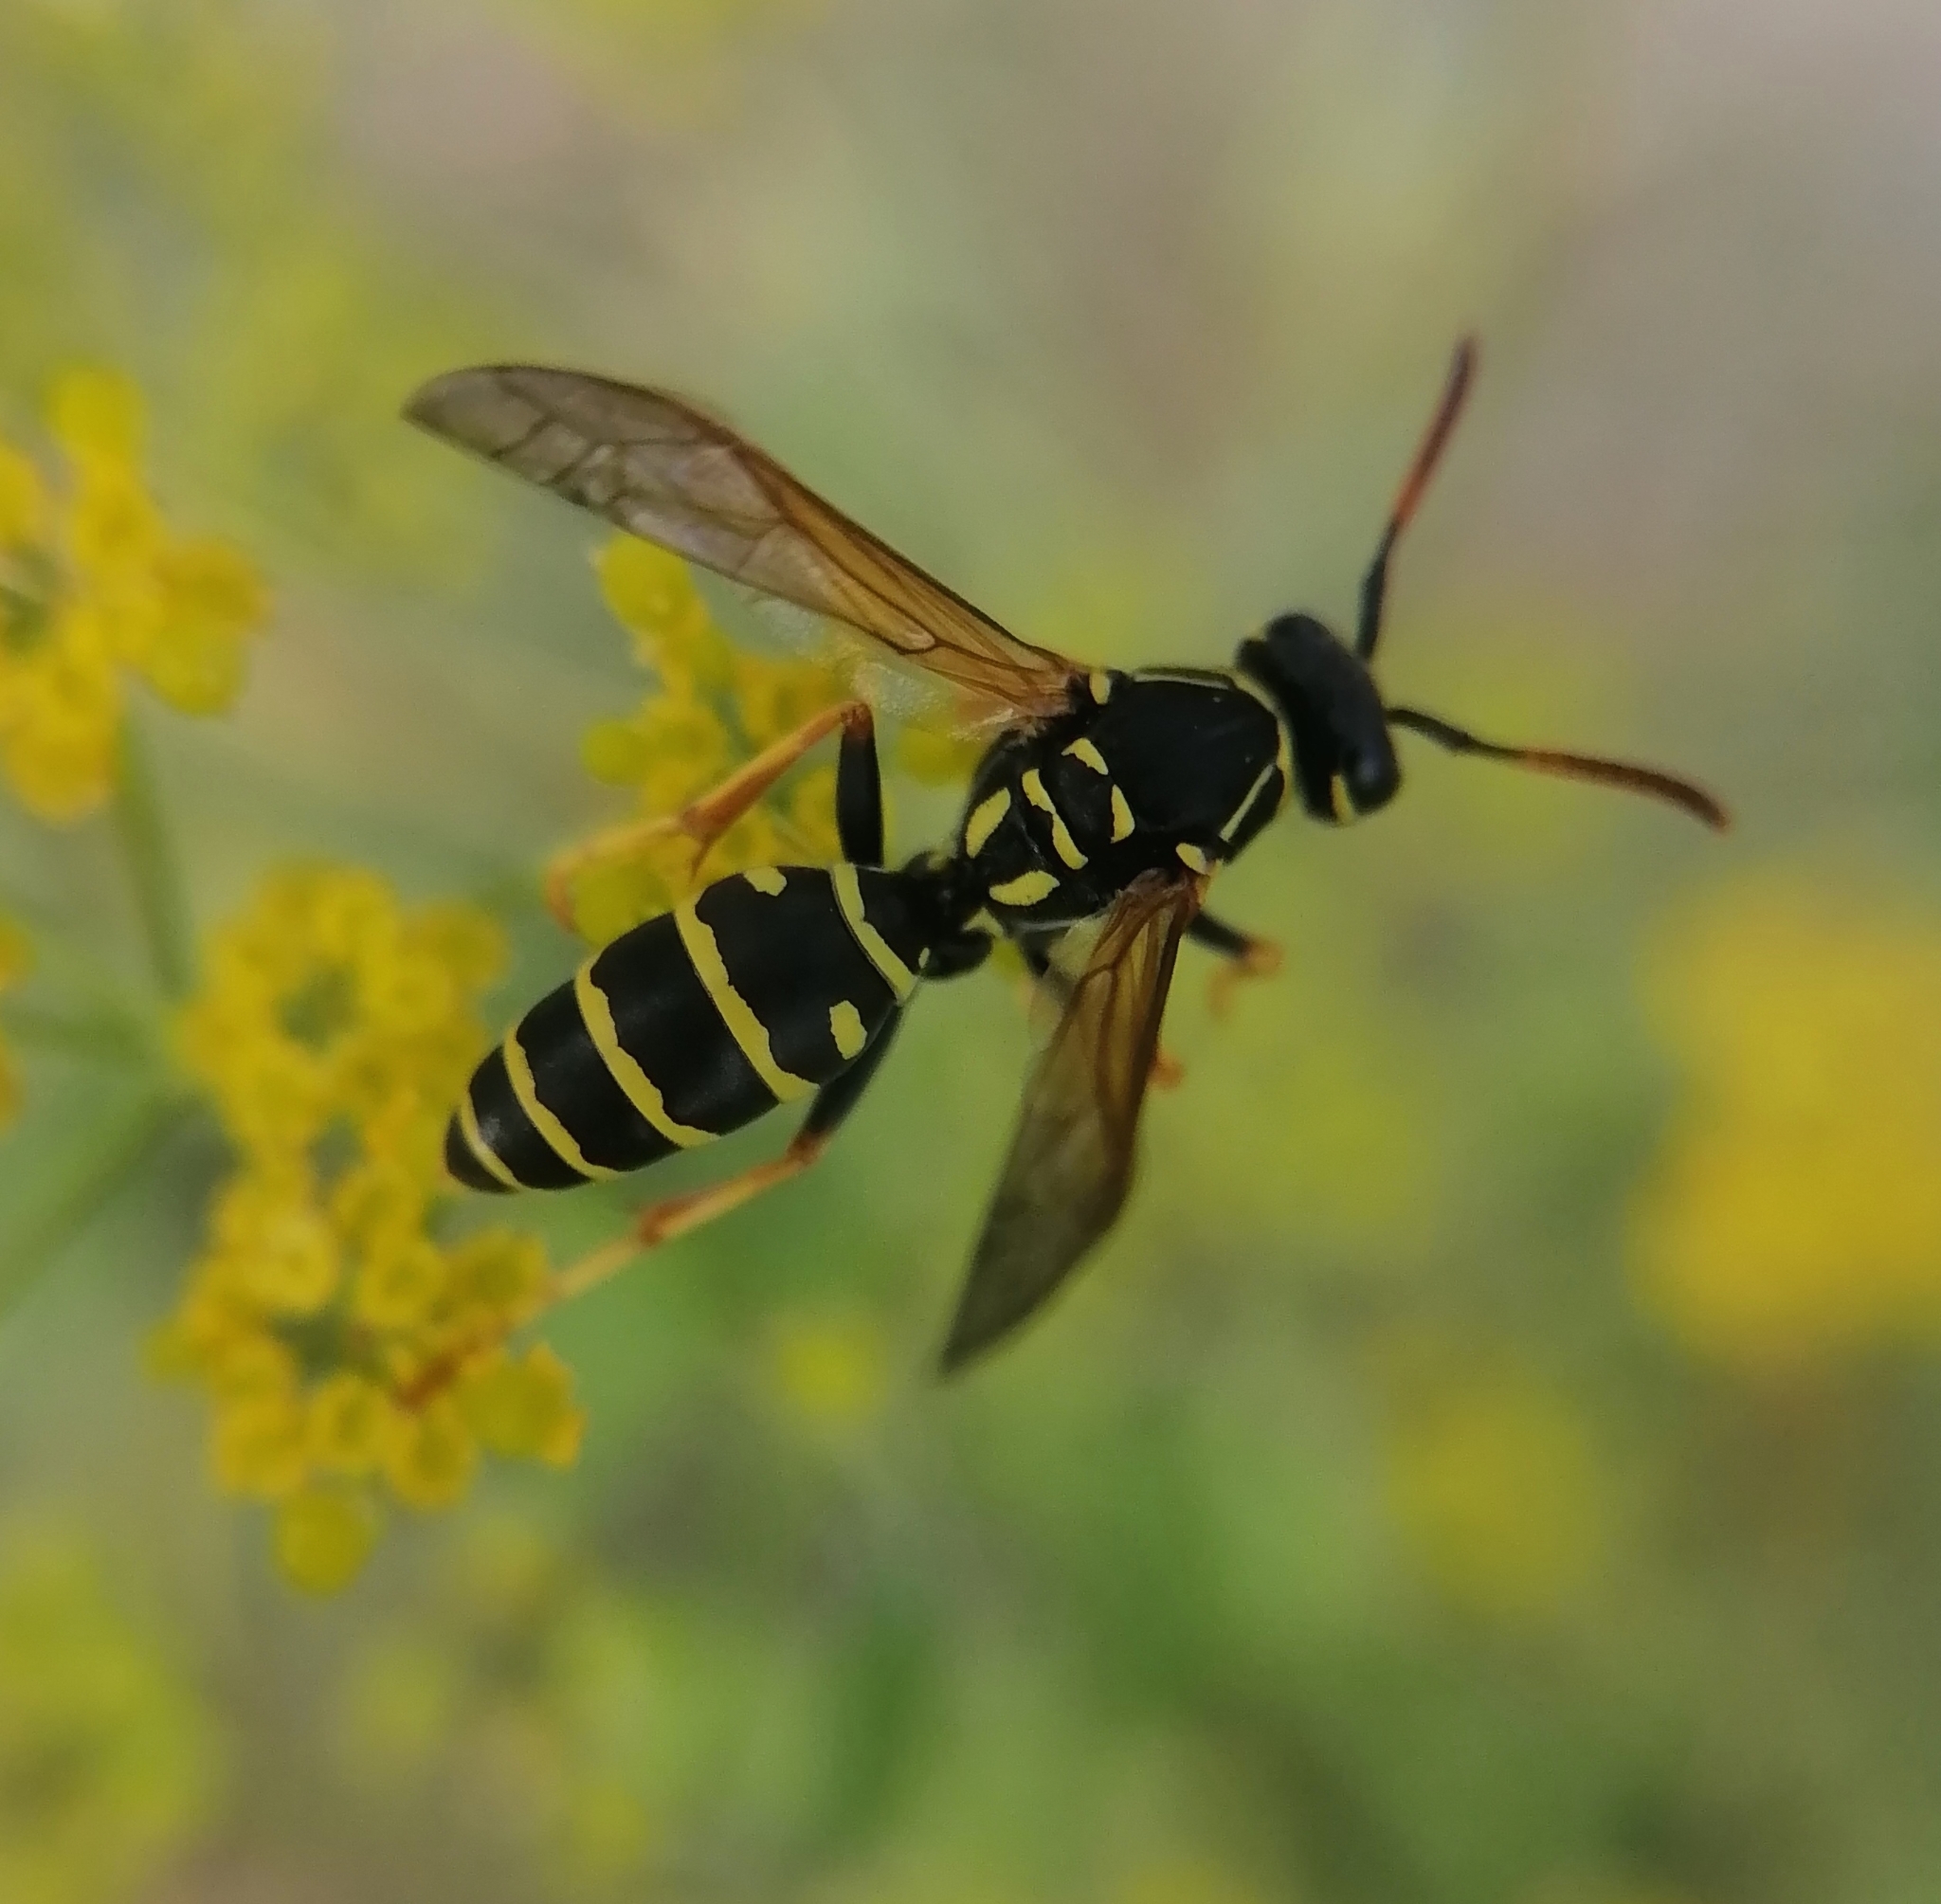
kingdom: Animalia
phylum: Arthropoda
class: Insecta
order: Hymenoptera
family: Eumenidae
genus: Polistes
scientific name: Polistes nimpha
